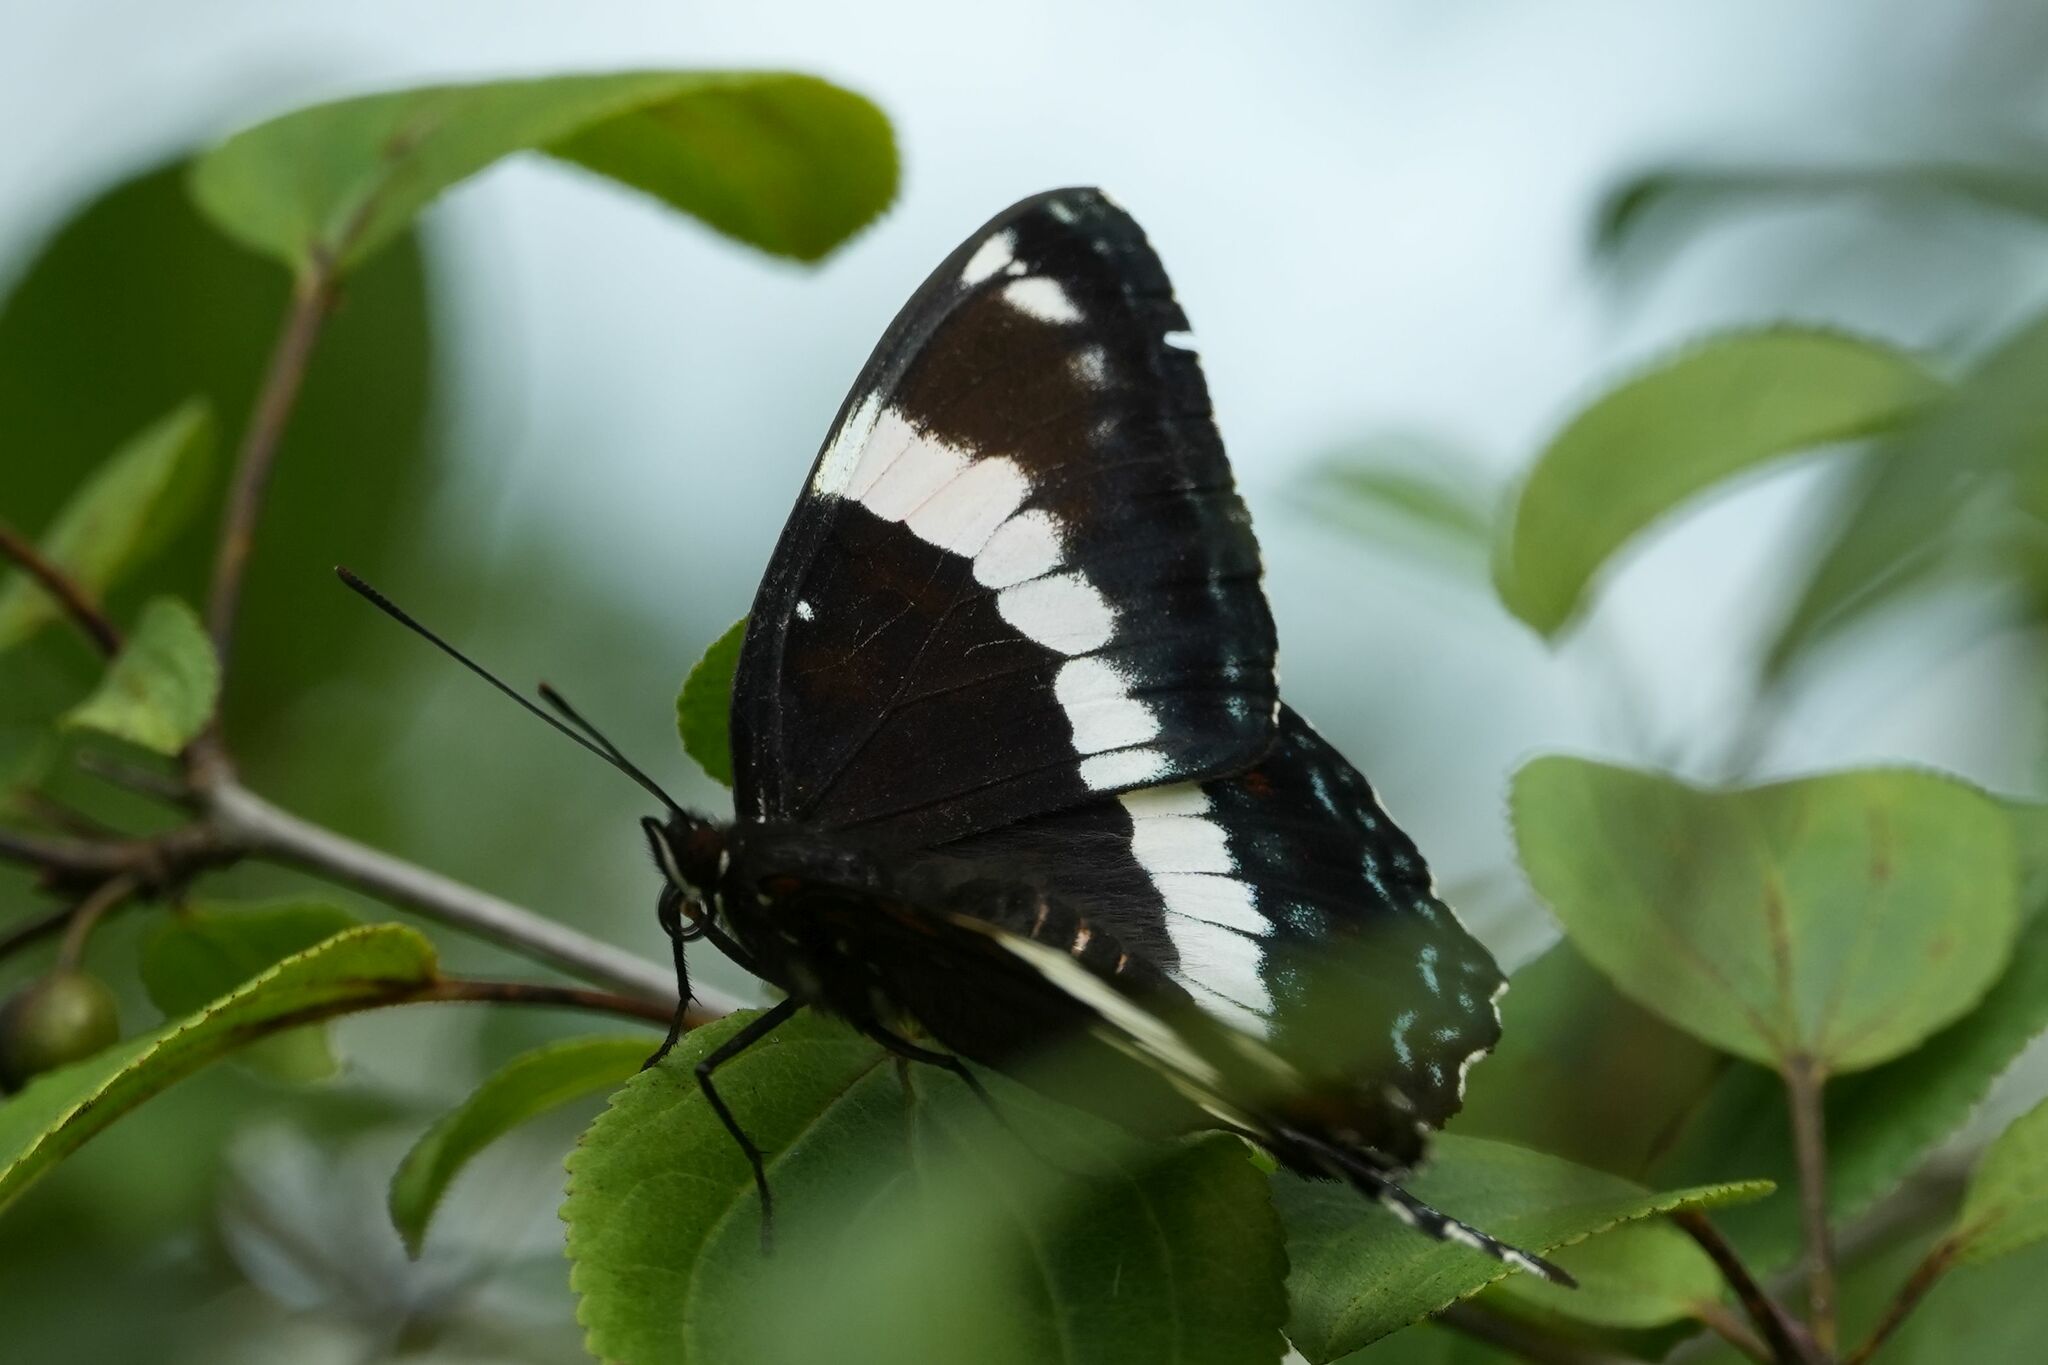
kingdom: Animalia
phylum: Arthropoda
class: Insecta
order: Lepidoptera
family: Nymphalidae
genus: Limenitis
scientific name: Limenitis arthemis
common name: Red-spotted admiral
